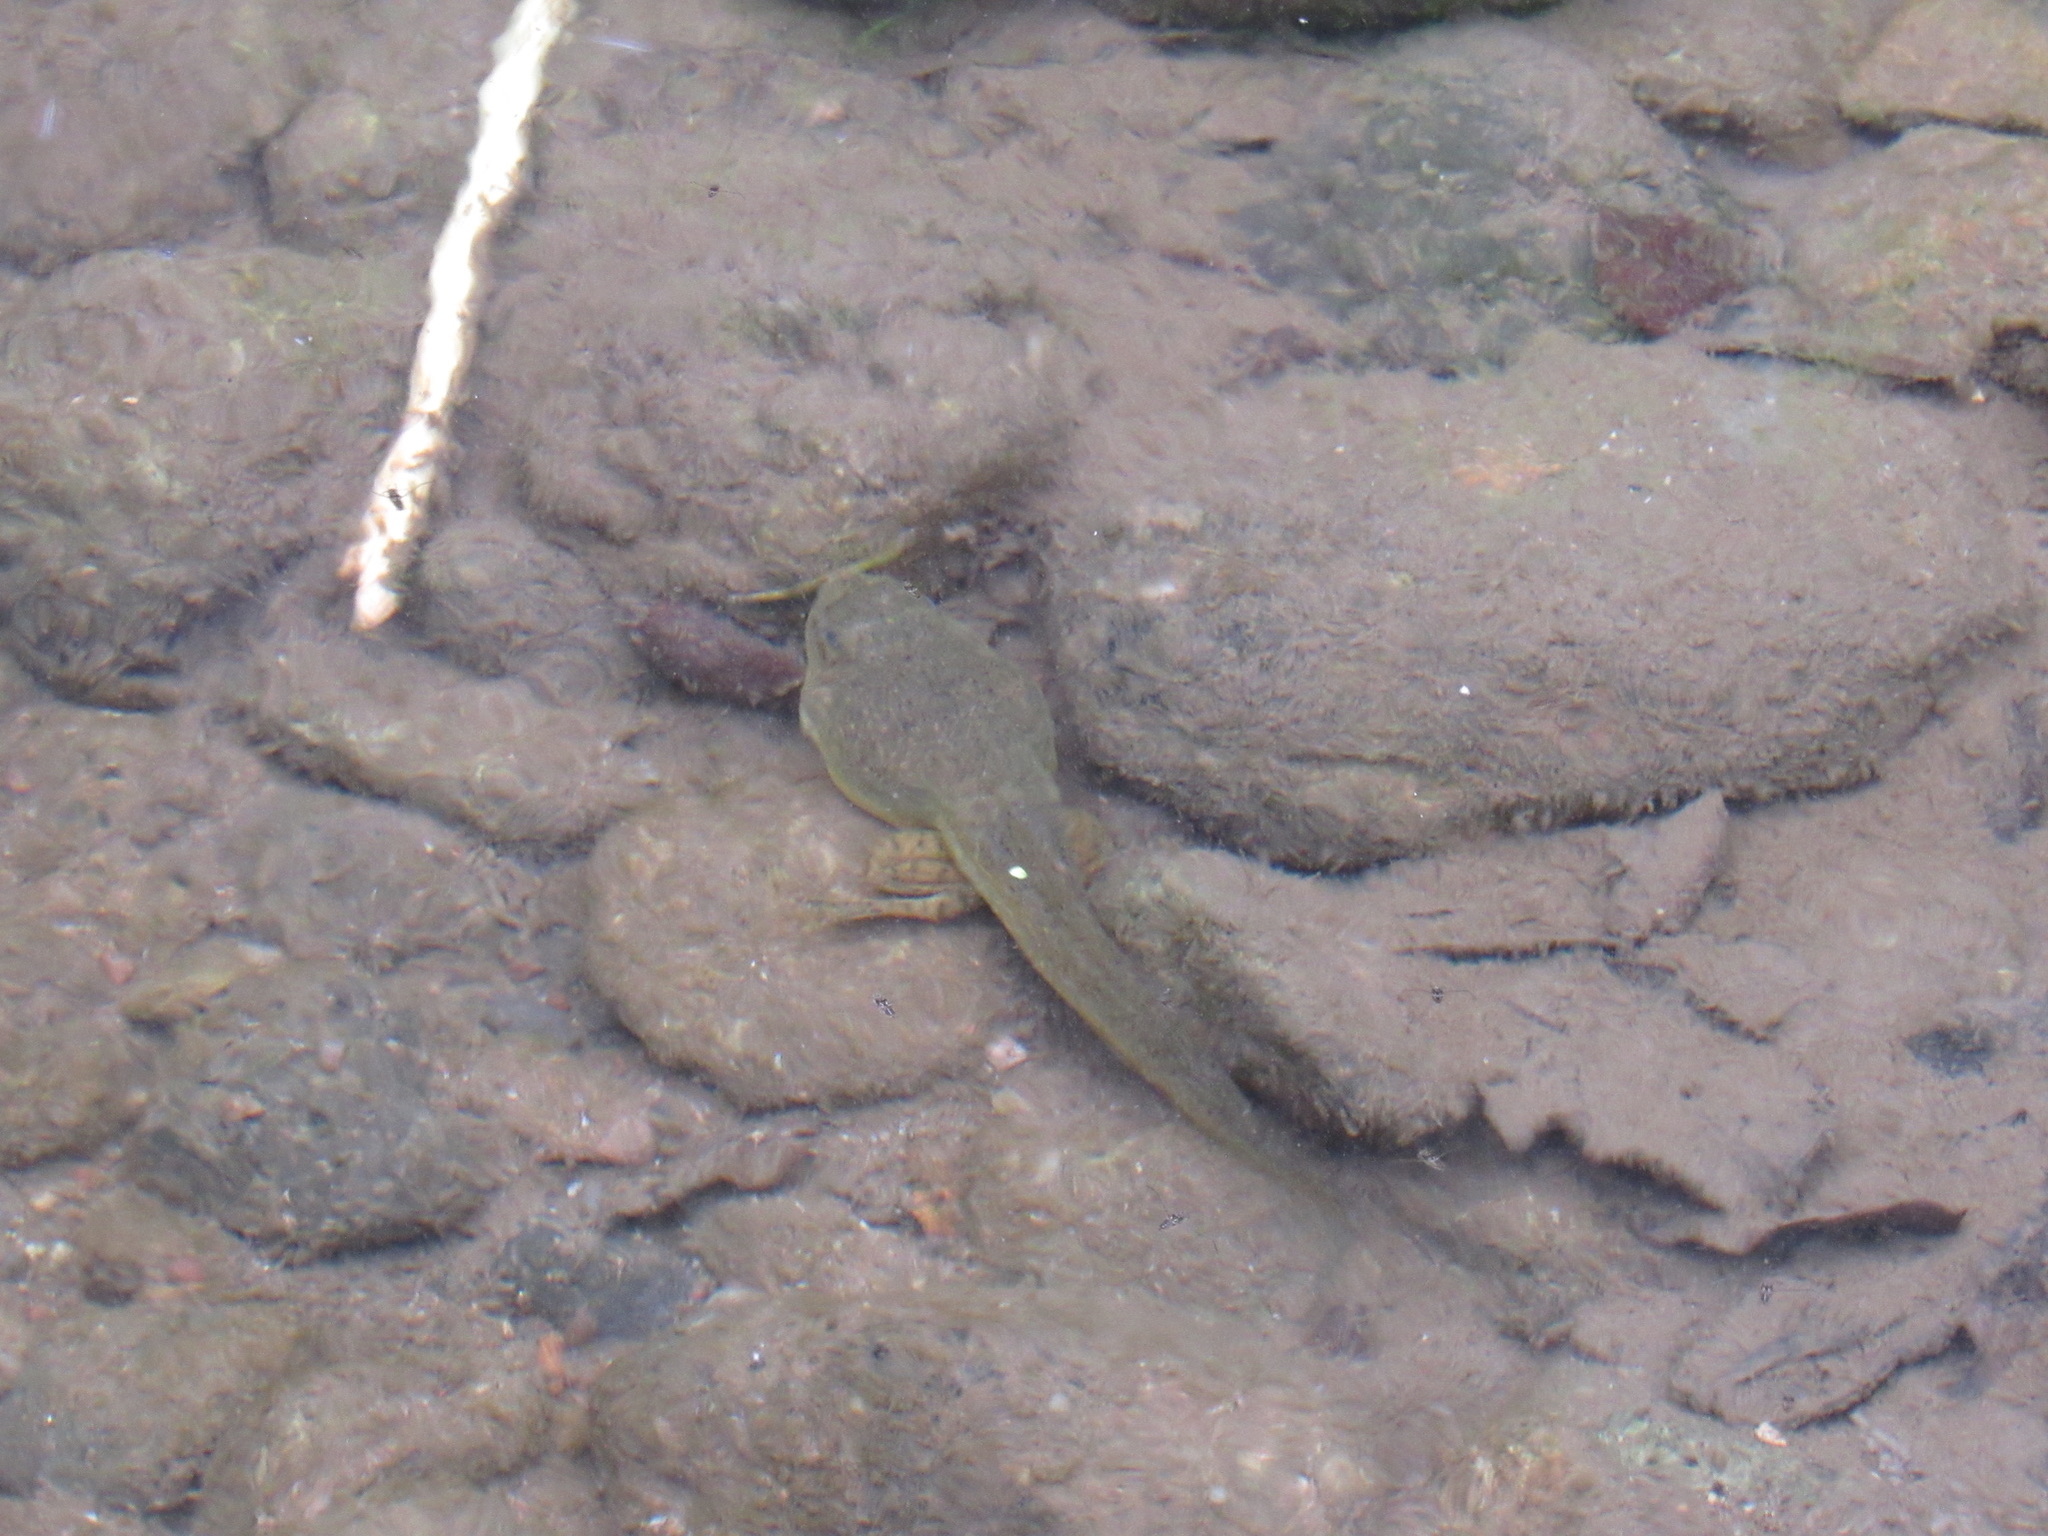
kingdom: Animalia
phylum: Chordata
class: Amphibia
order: Anura
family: Ranidae
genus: Lithobates
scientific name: Lithobates catesbeianus
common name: American bullfrog
